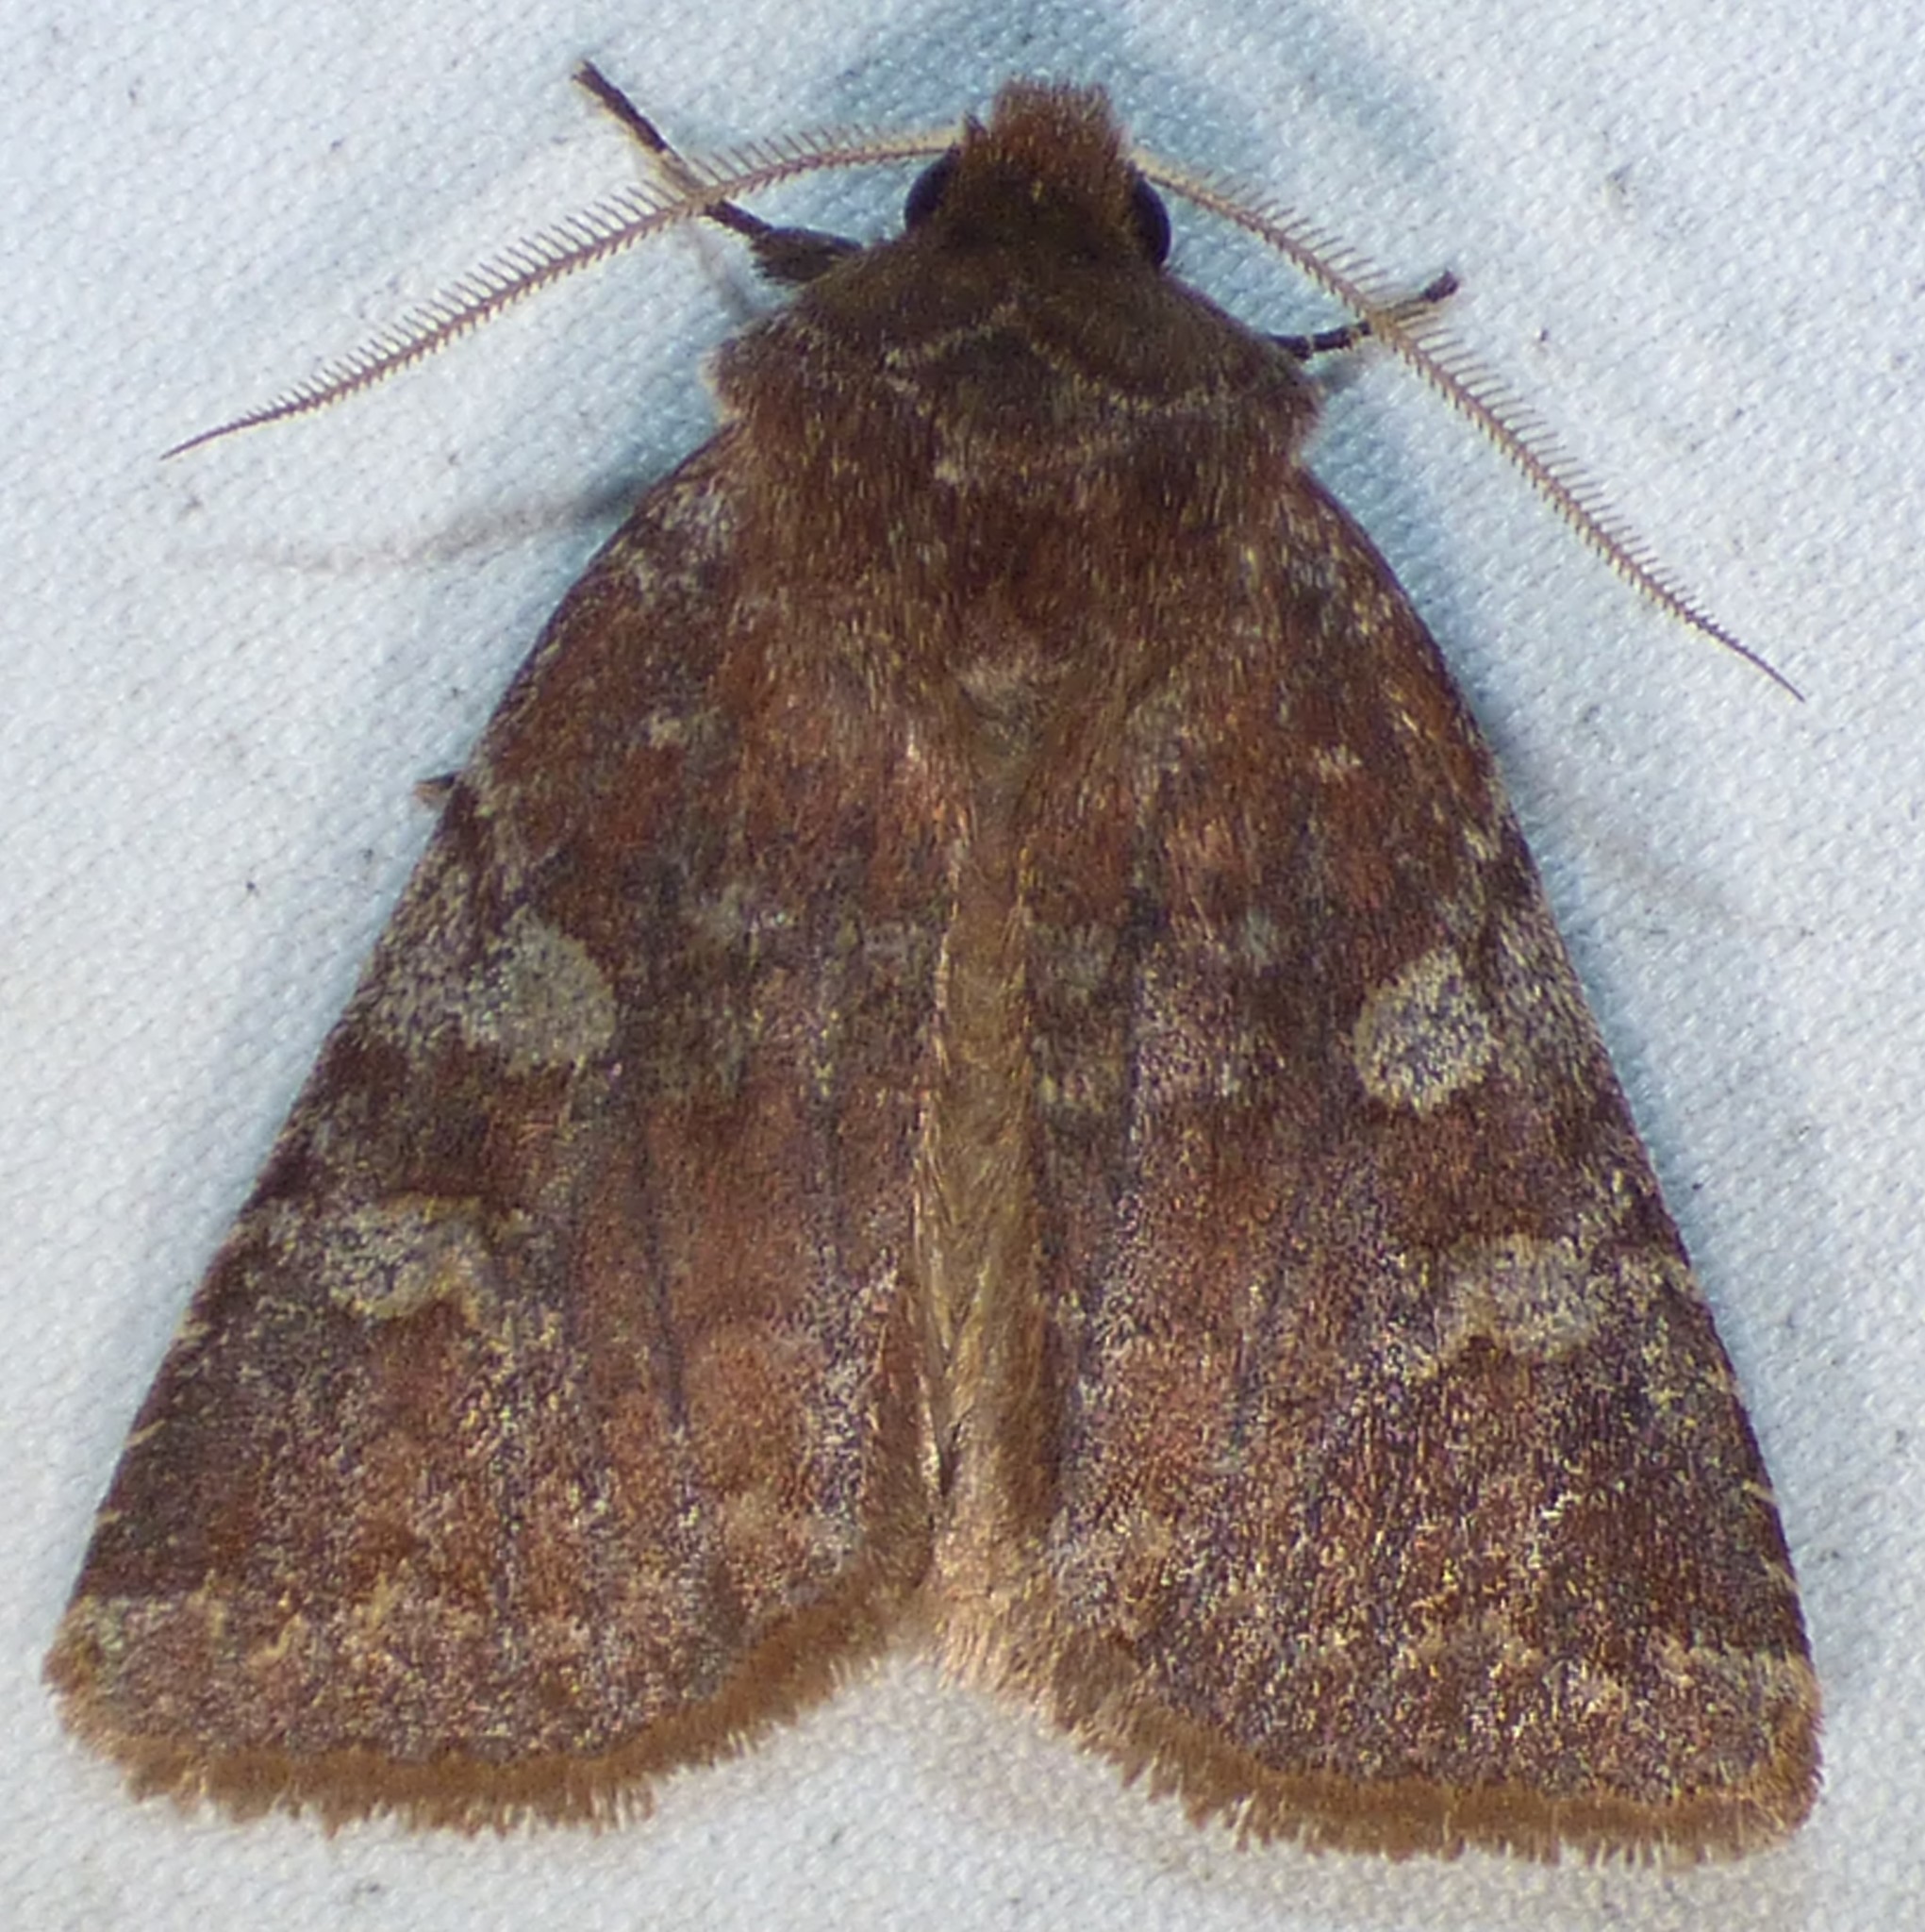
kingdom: Animalia
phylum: Arthropoda
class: Insecta
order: Lepidoptera
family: Noctuidae
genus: Cerastis
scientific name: Cerastis tenebrifera
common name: Reddish speckled dart
